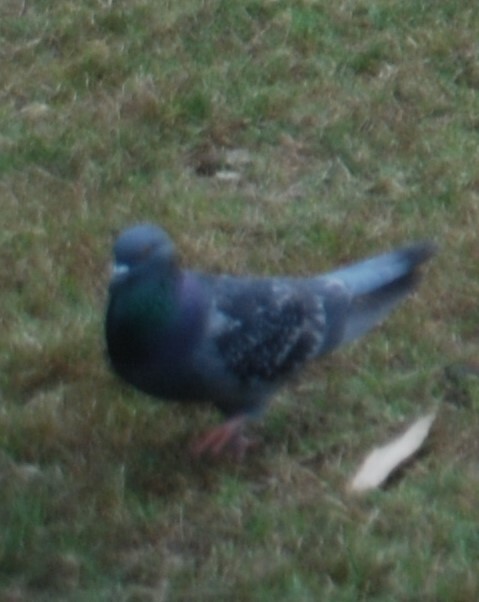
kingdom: Animalia
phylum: Chordata
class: Aves
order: Columbiformes
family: Columbidae
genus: Columba
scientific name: Columba livia
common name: Rock pigeon
